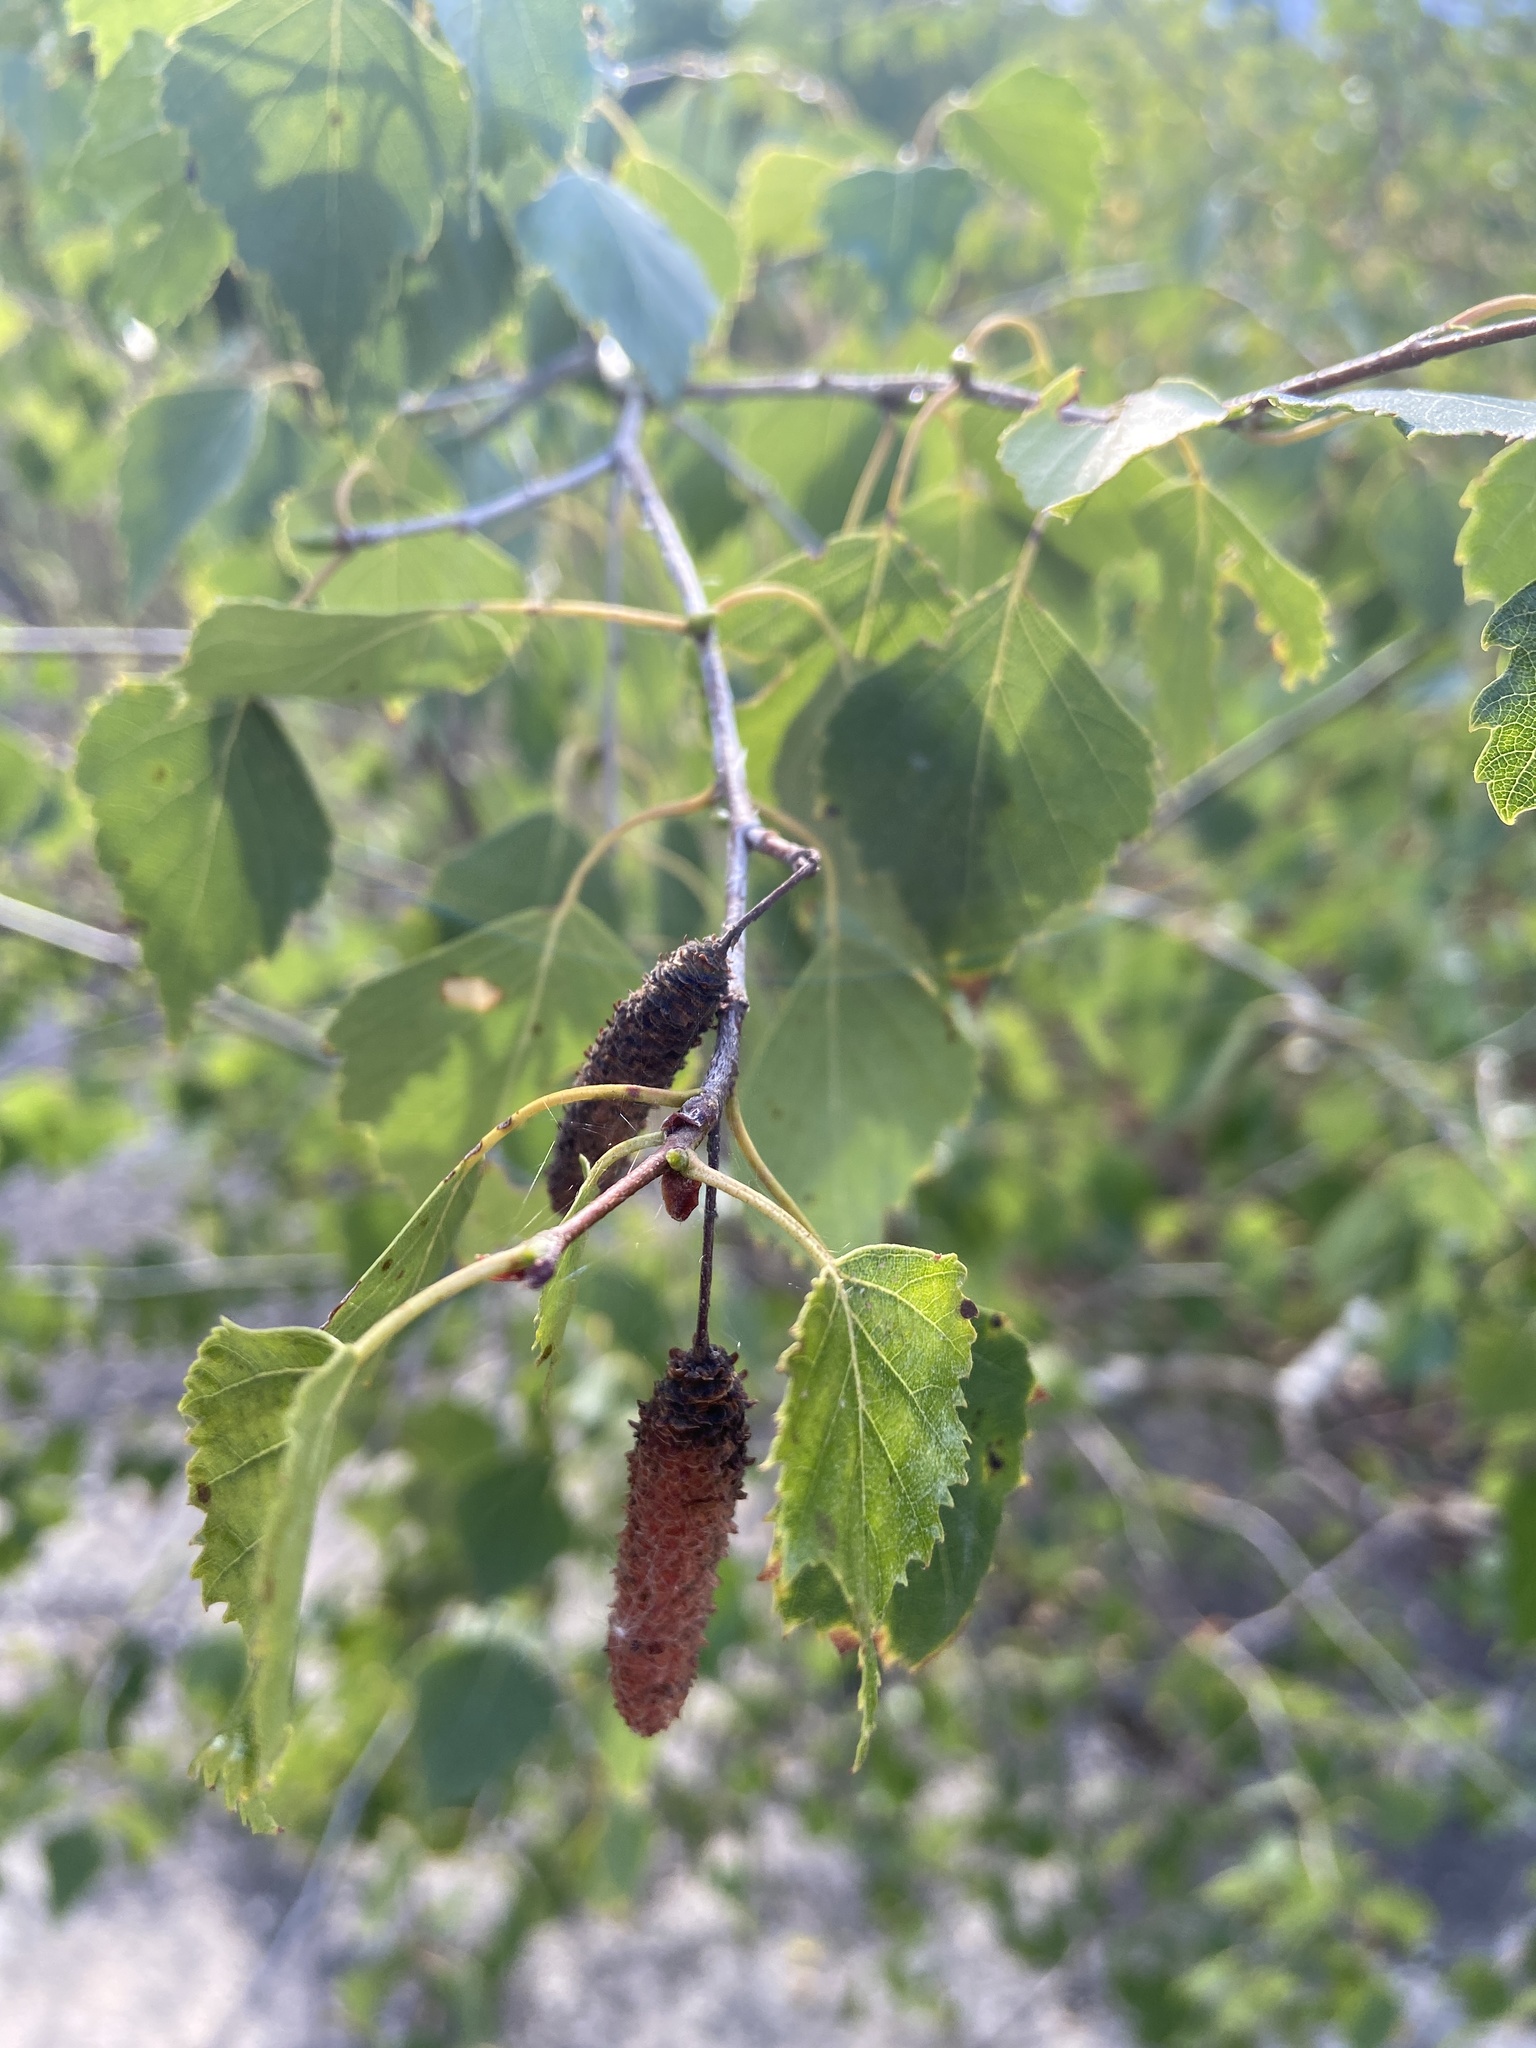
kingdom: Plantae
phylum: Tracheophyta
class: Magnoliopsida
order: Fagales
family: Betulaceae
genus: Betula
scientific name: Betula pendula
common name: Silver birch
